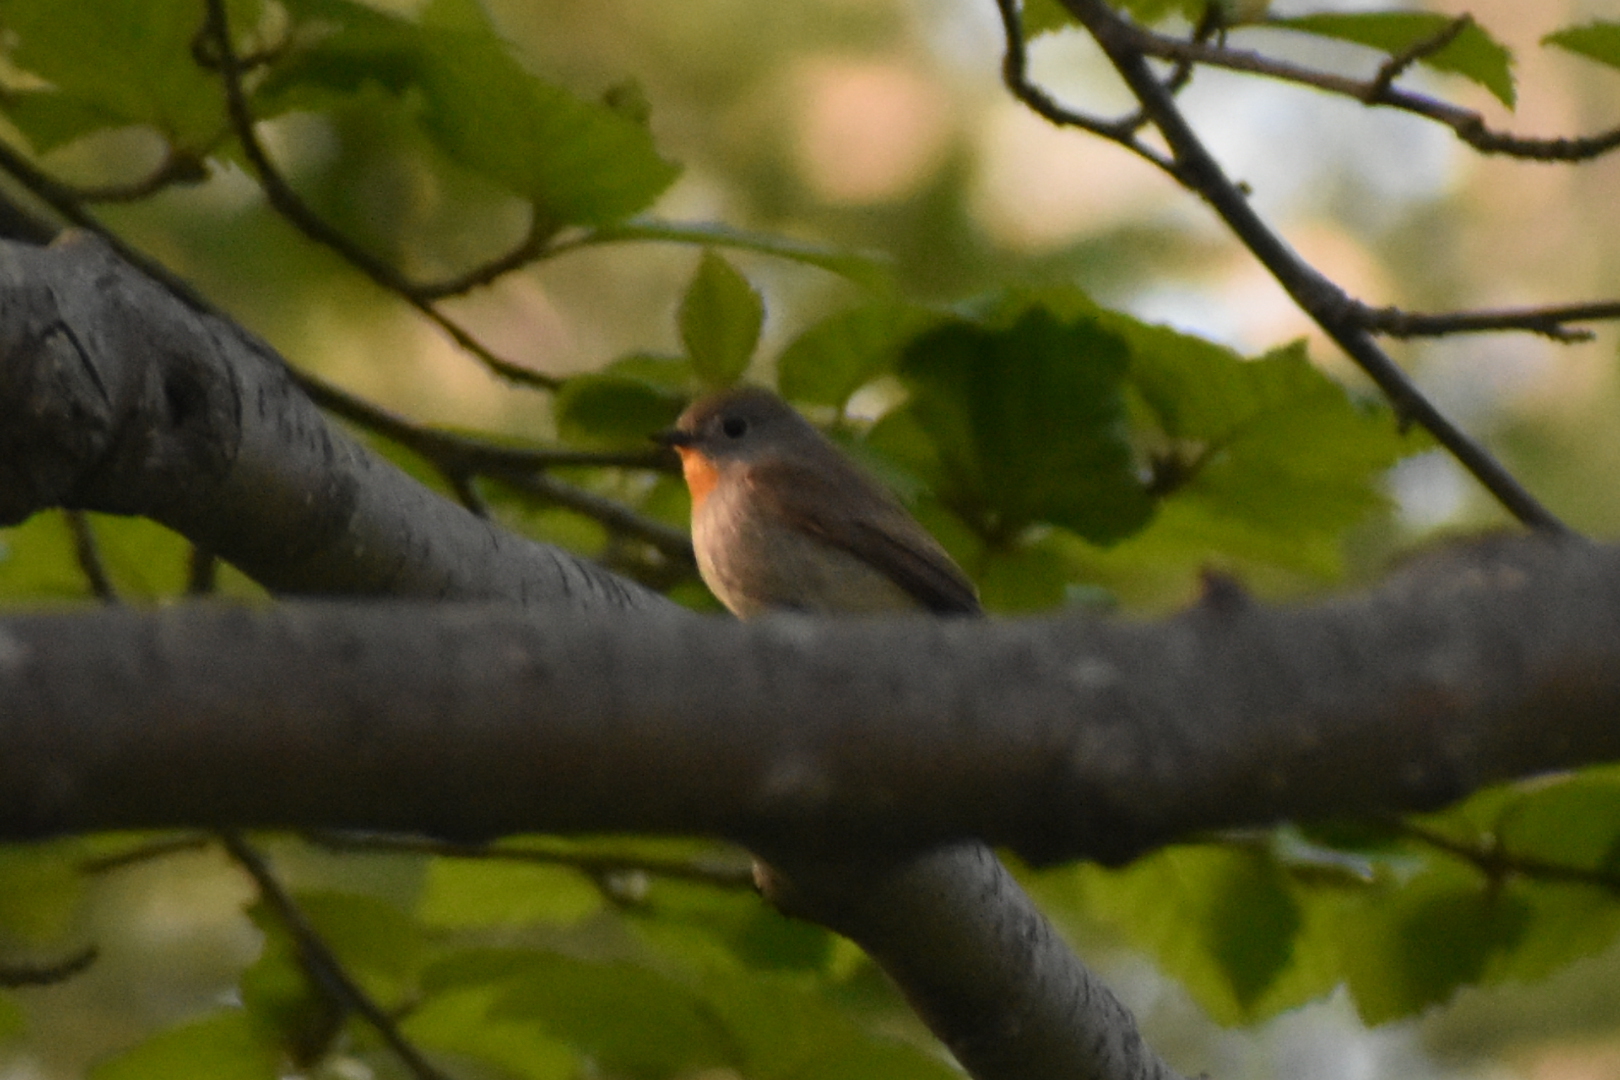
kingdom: Animalia
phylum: Chordata
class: Aves
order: Passeriformes
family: Muscicapidae
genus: Ficedula
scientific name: Ficedula albicilla
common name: Taiga flycatcher
